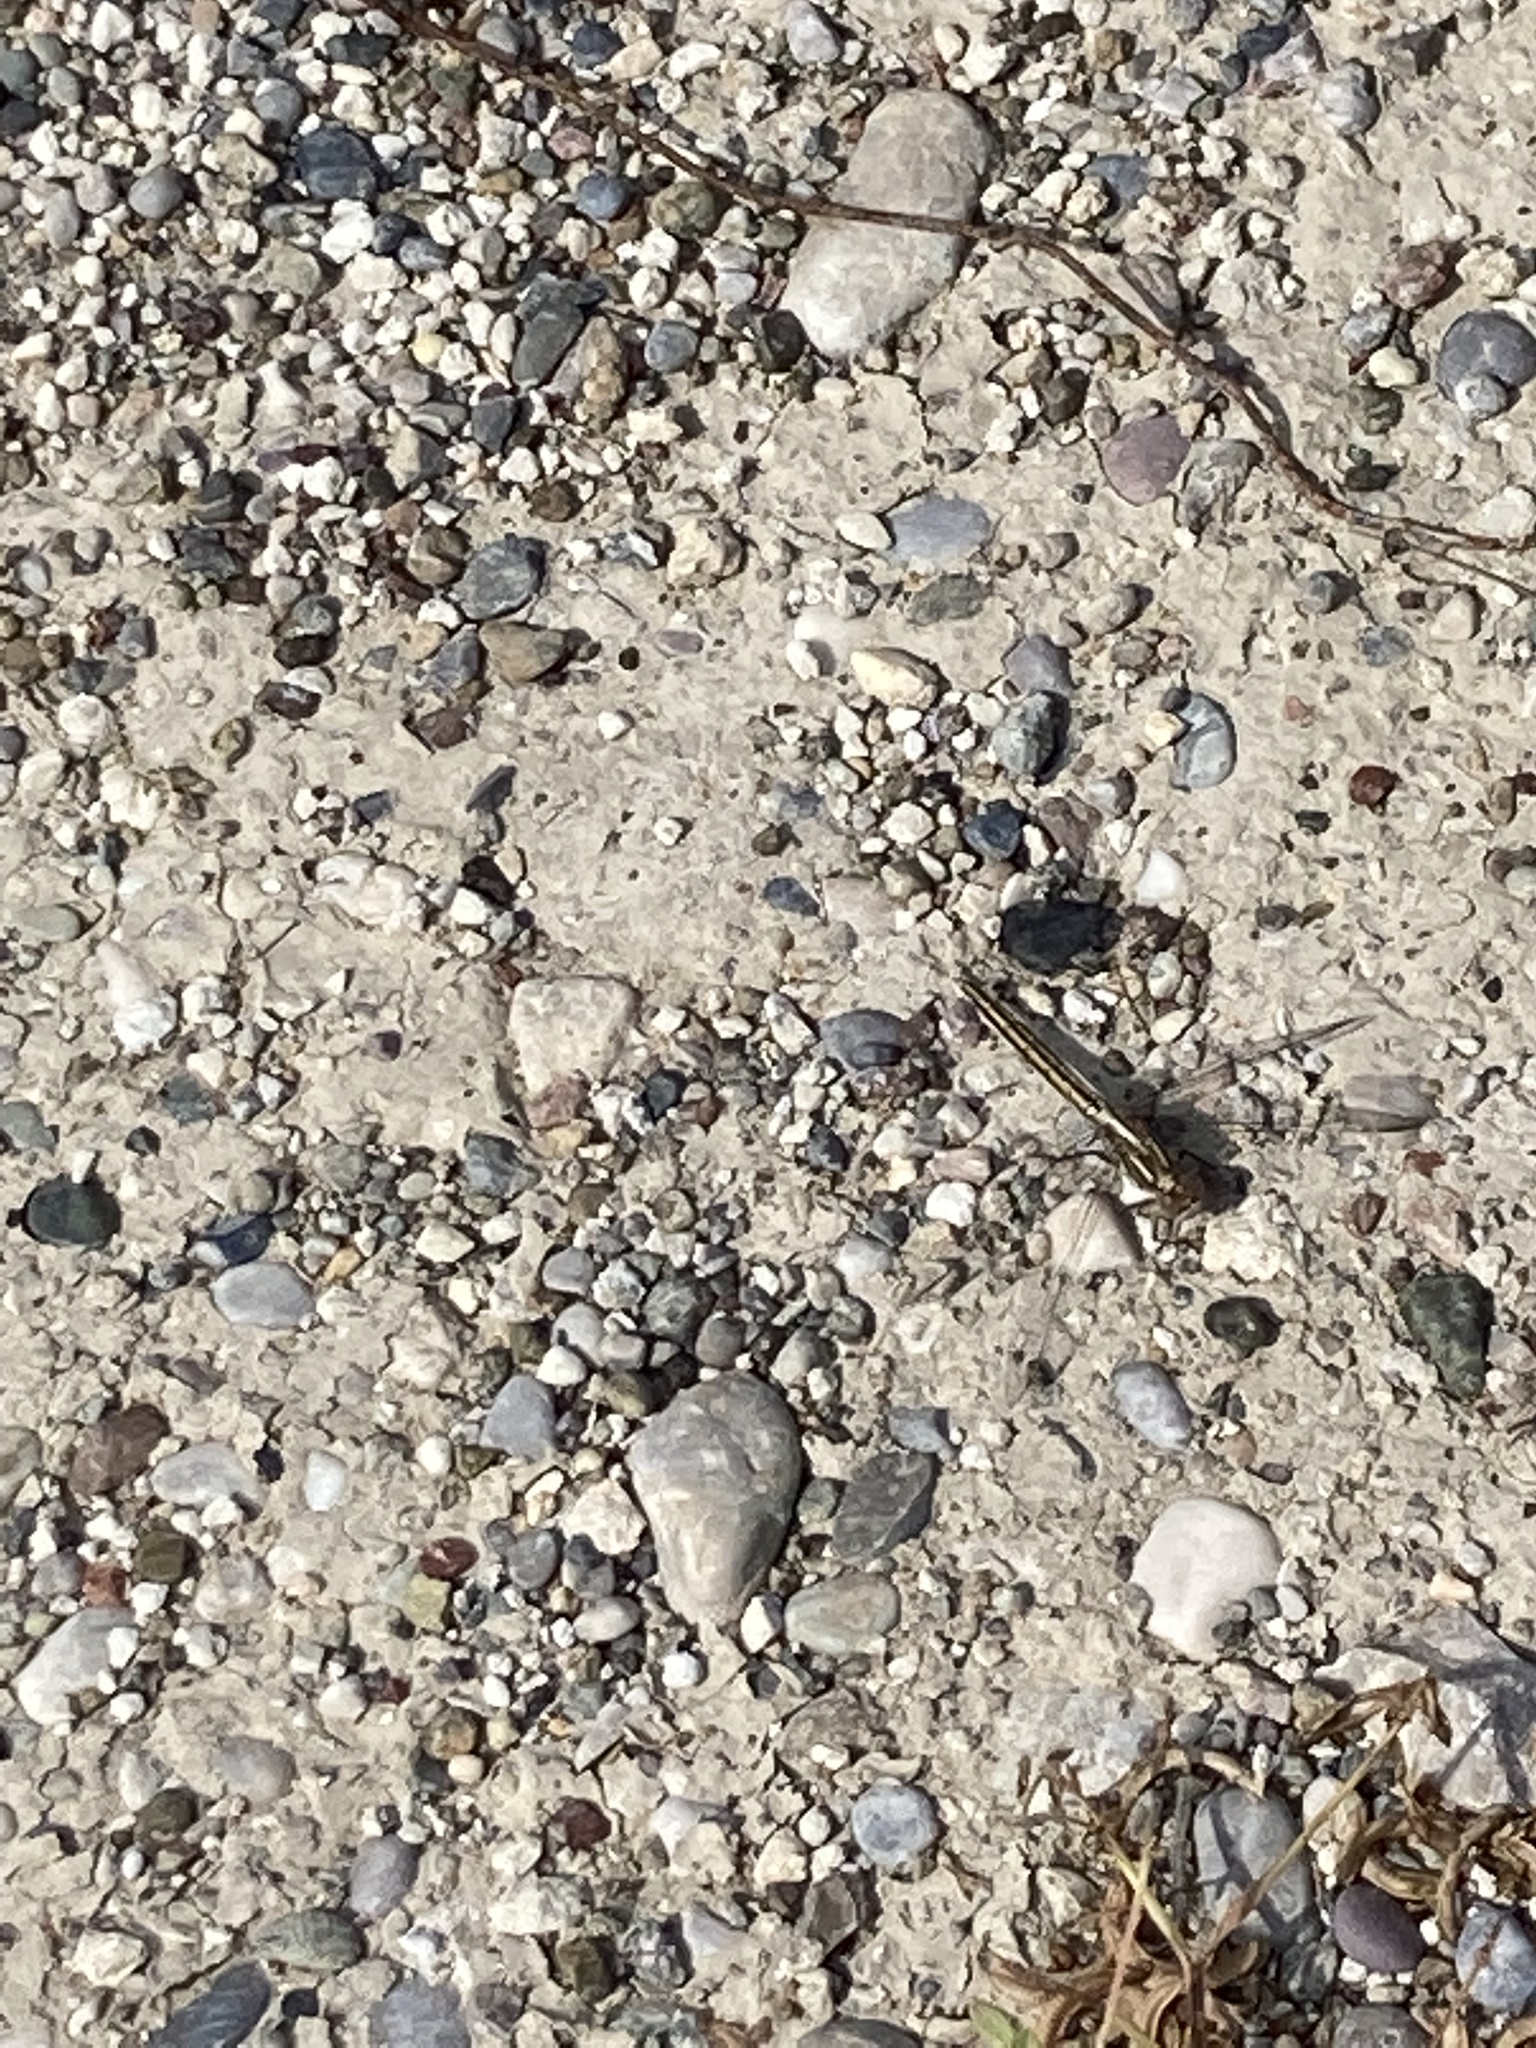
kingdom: Animalia
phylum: Arthropoda
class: Insecta
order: Odonata
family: Libellulidae
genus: Orthetrum
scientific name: Orthetrum taeniolatum
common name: Small skimmer
